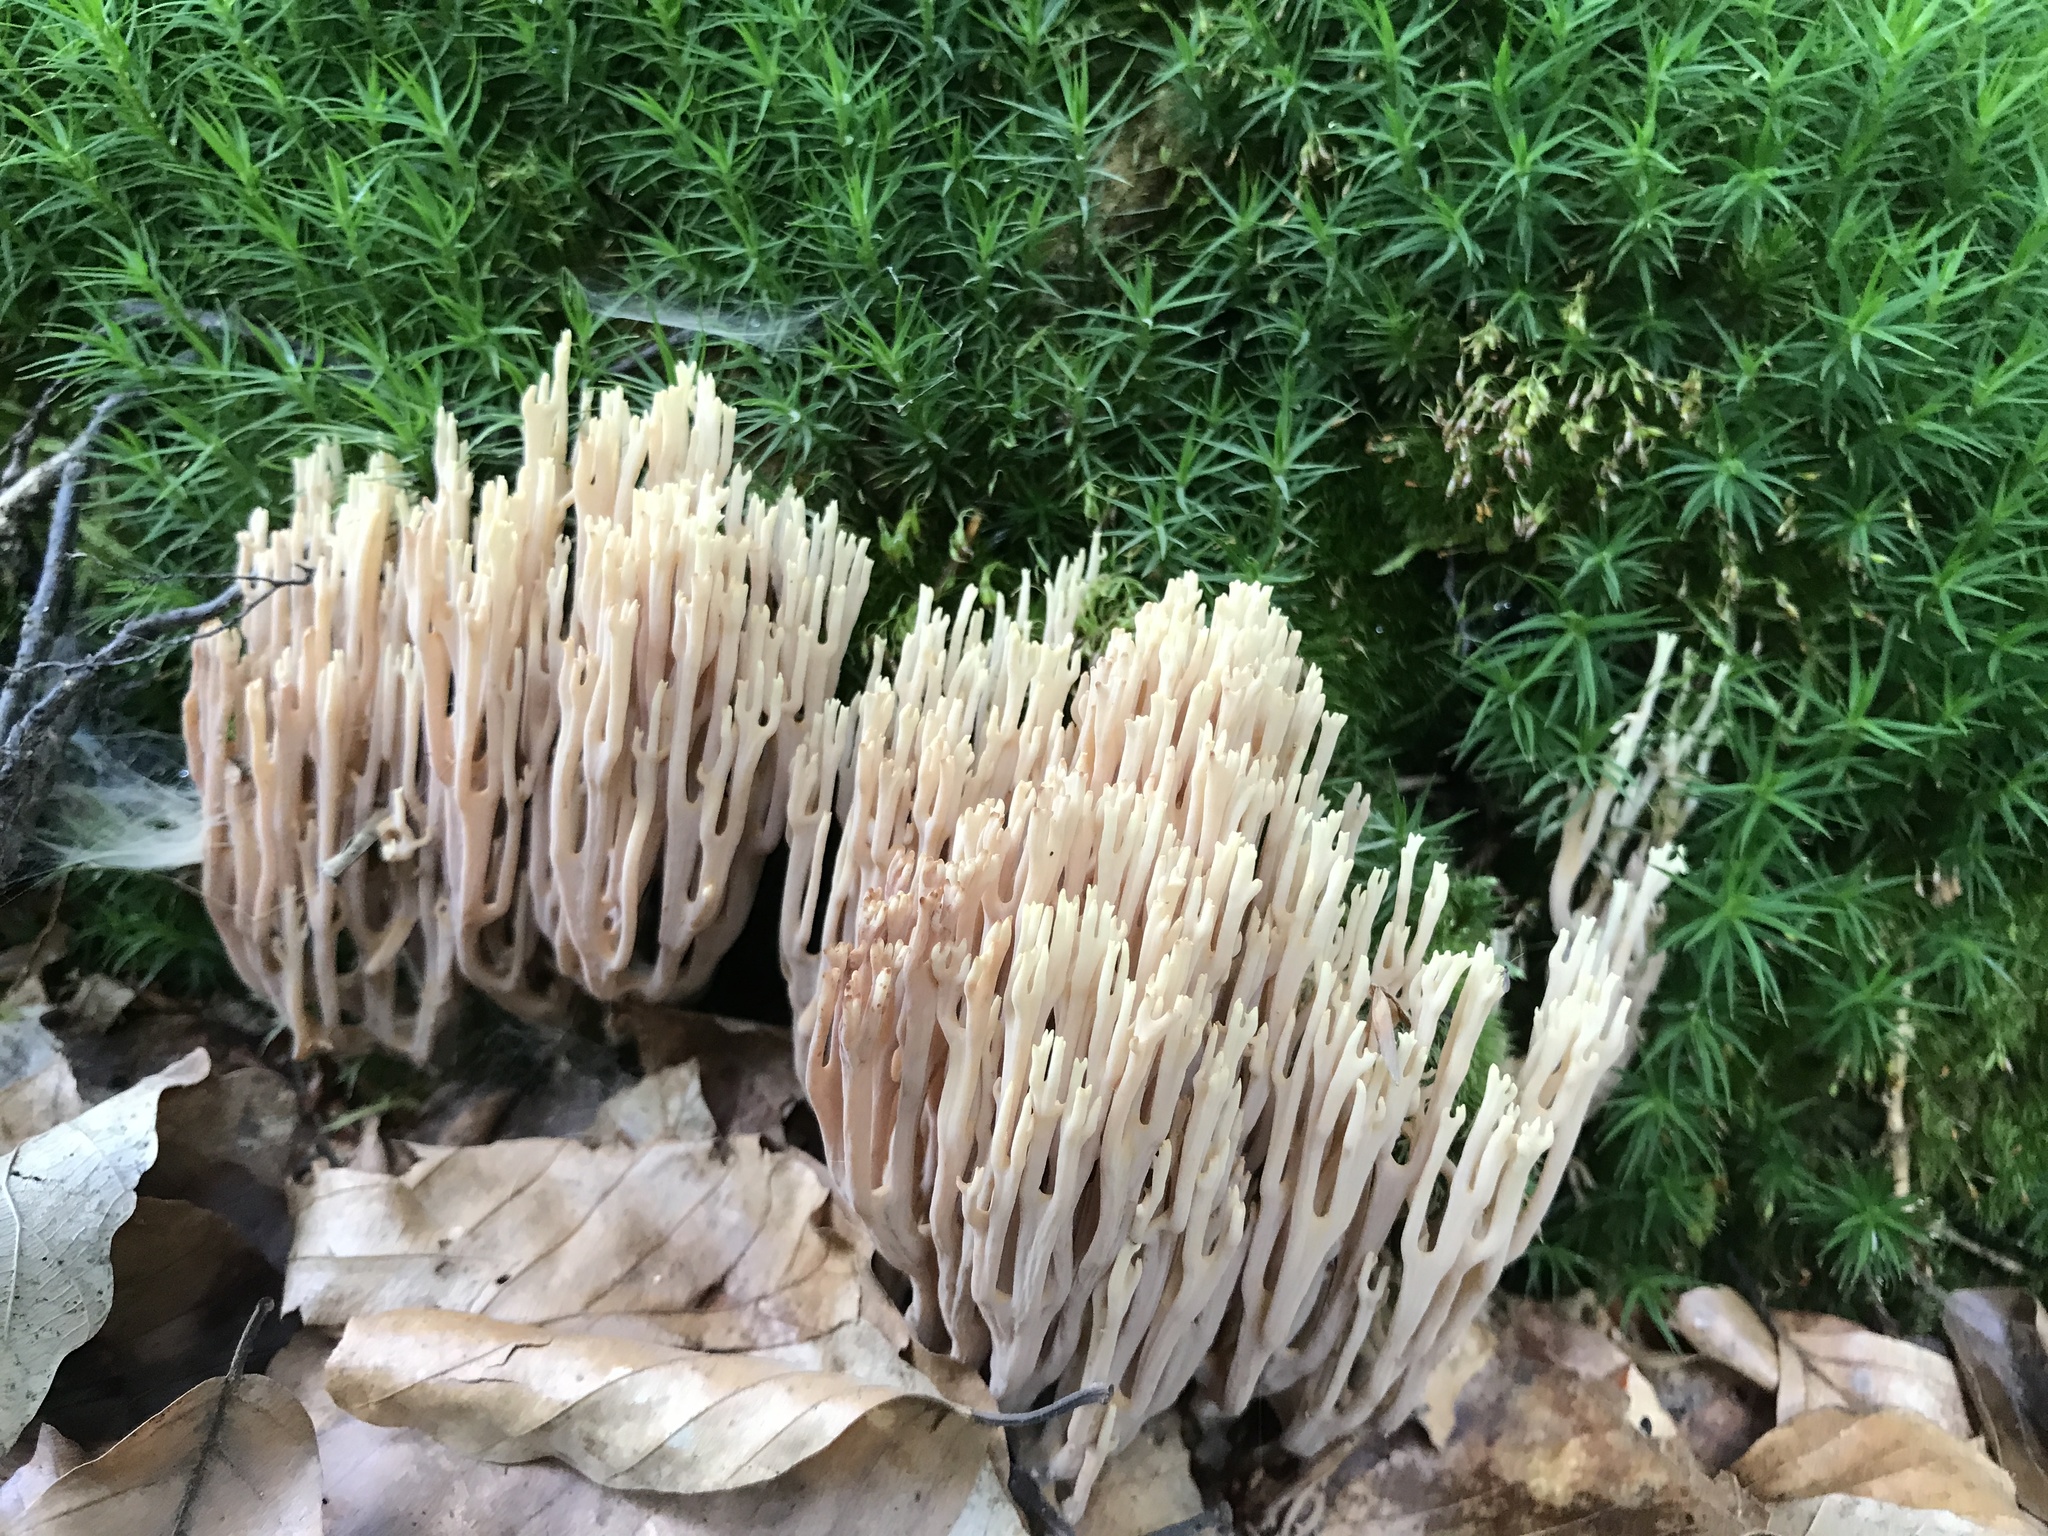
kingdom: Fungi
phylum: Basidiomycota
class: Agaricomycetes
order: Gomphales
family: Gomphaceae
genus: Ramaria
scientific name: Ramaria stricta
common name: Upright coral
